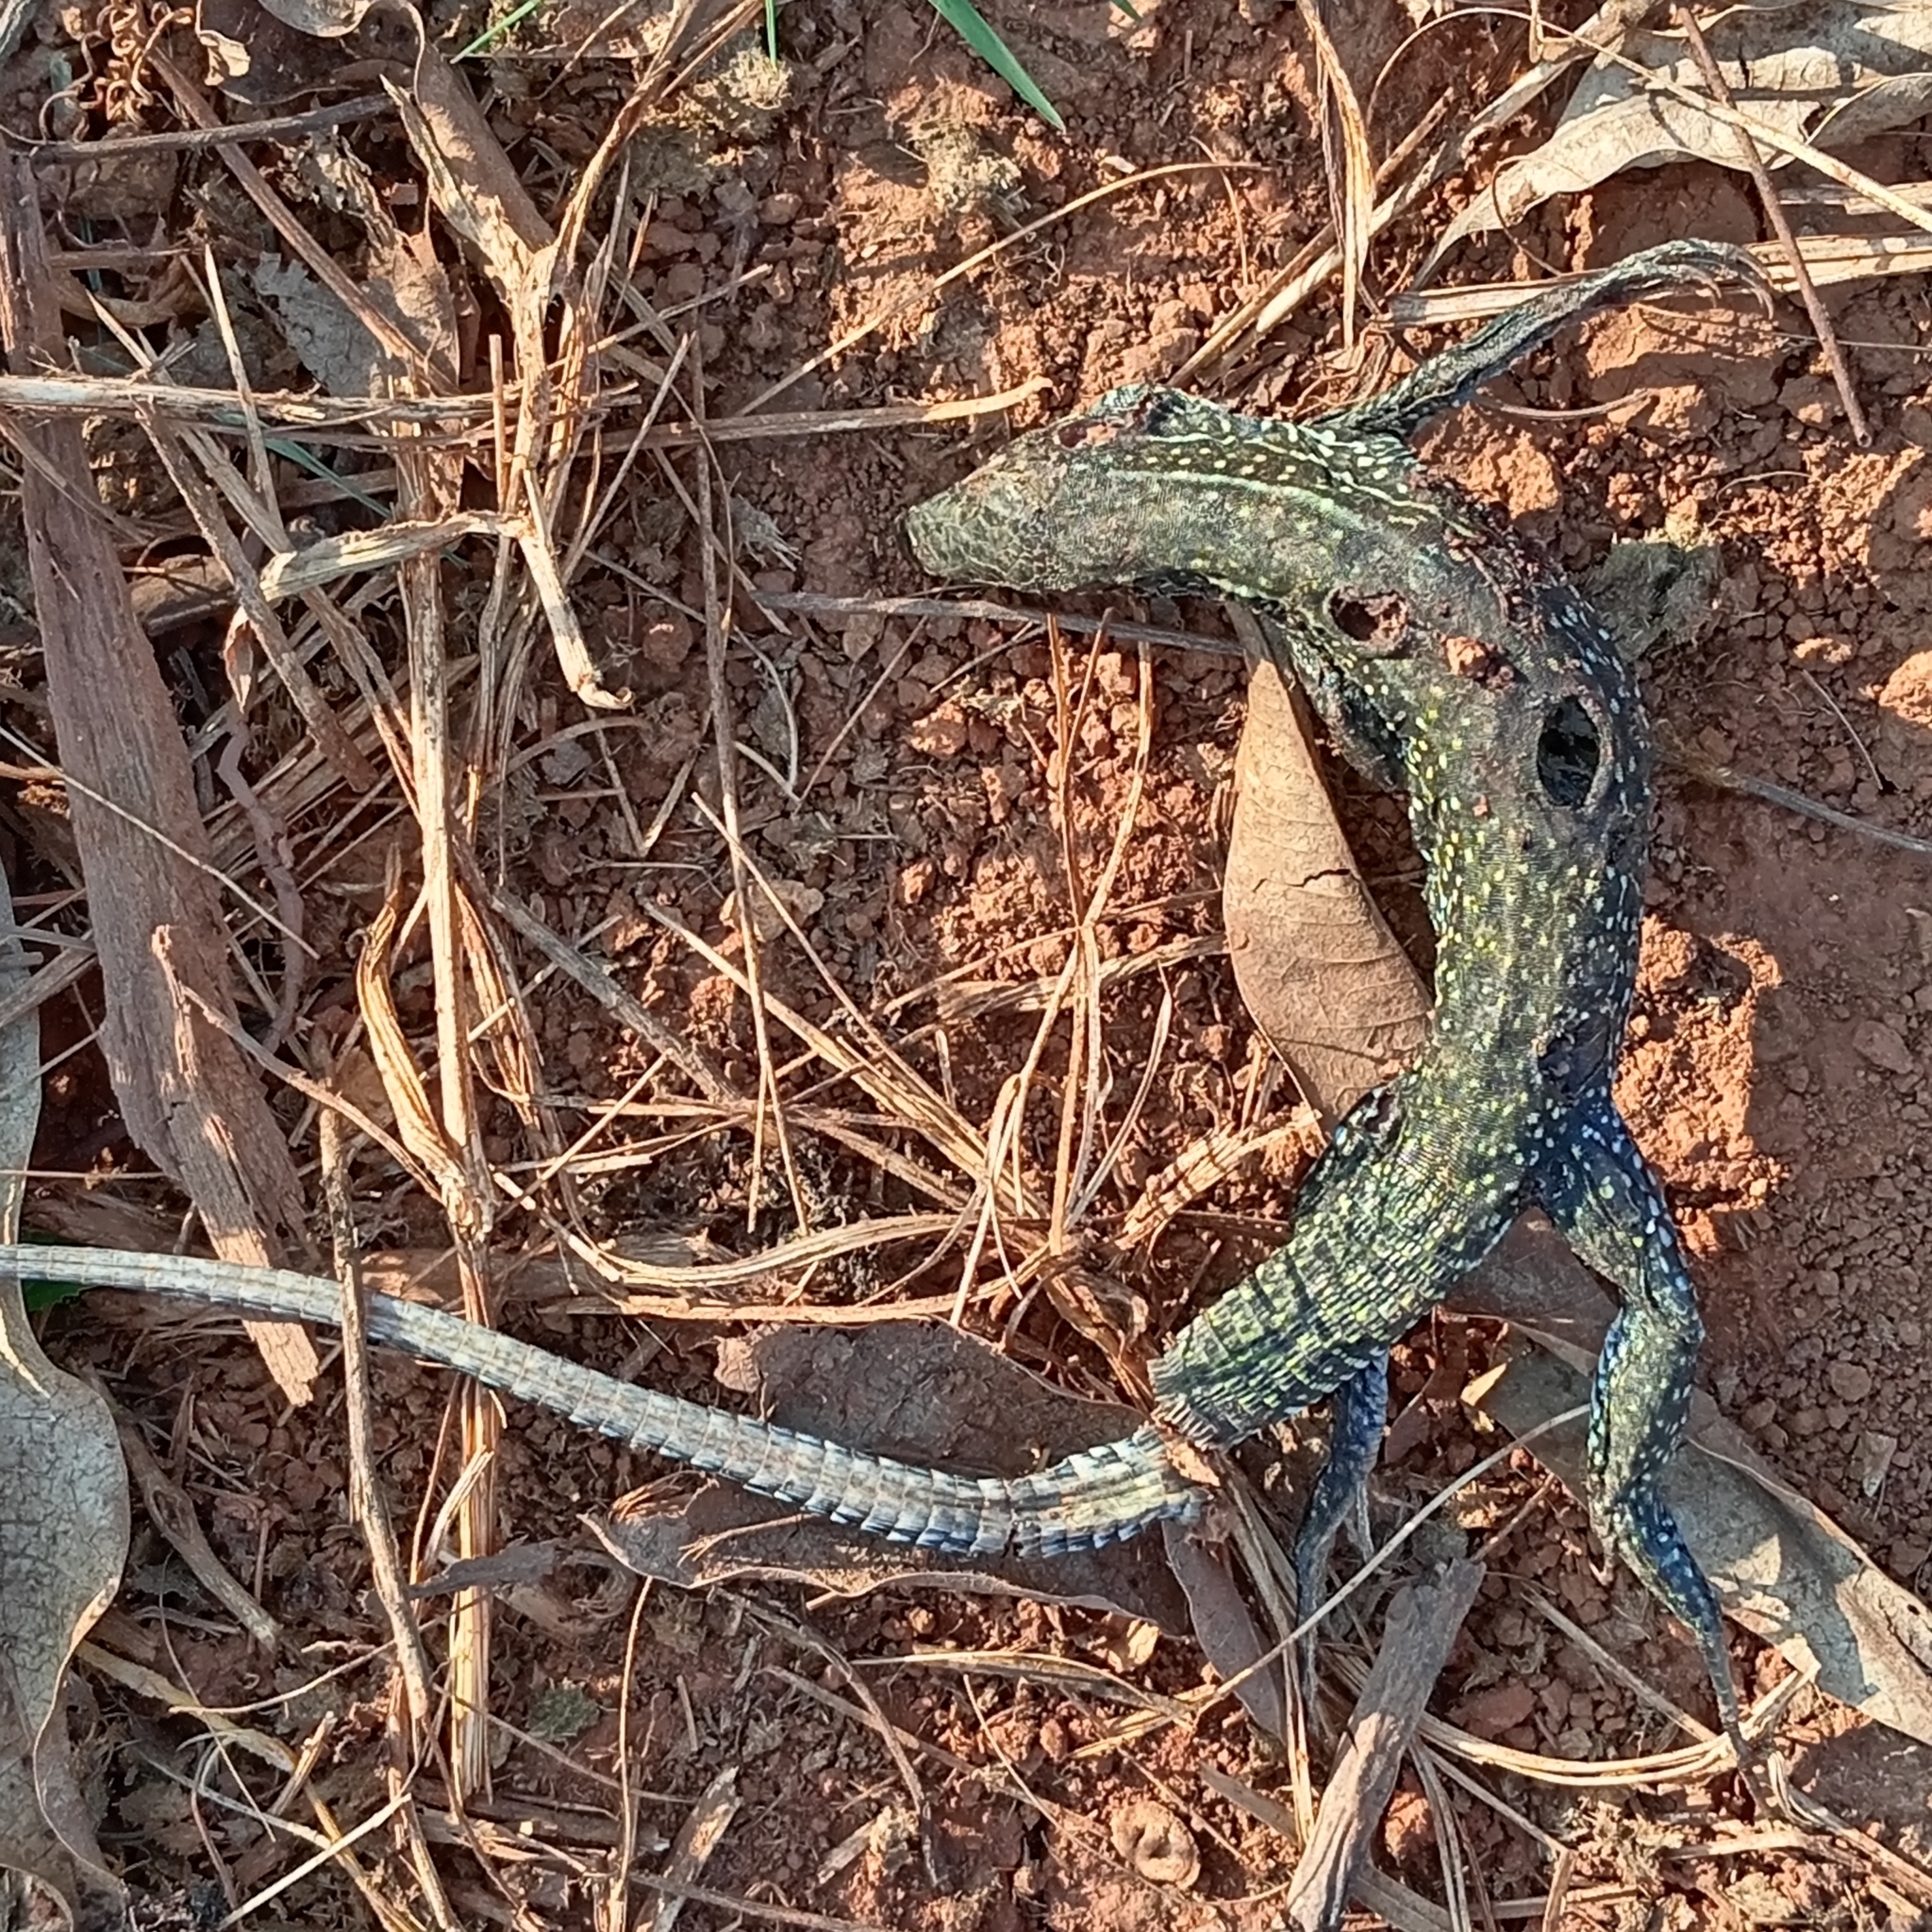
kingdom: Animalia
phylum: Chordata
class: Squamata
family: Teiidae
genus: Ameiva
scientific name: Ameiva praesignis
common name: Giant ameiva
